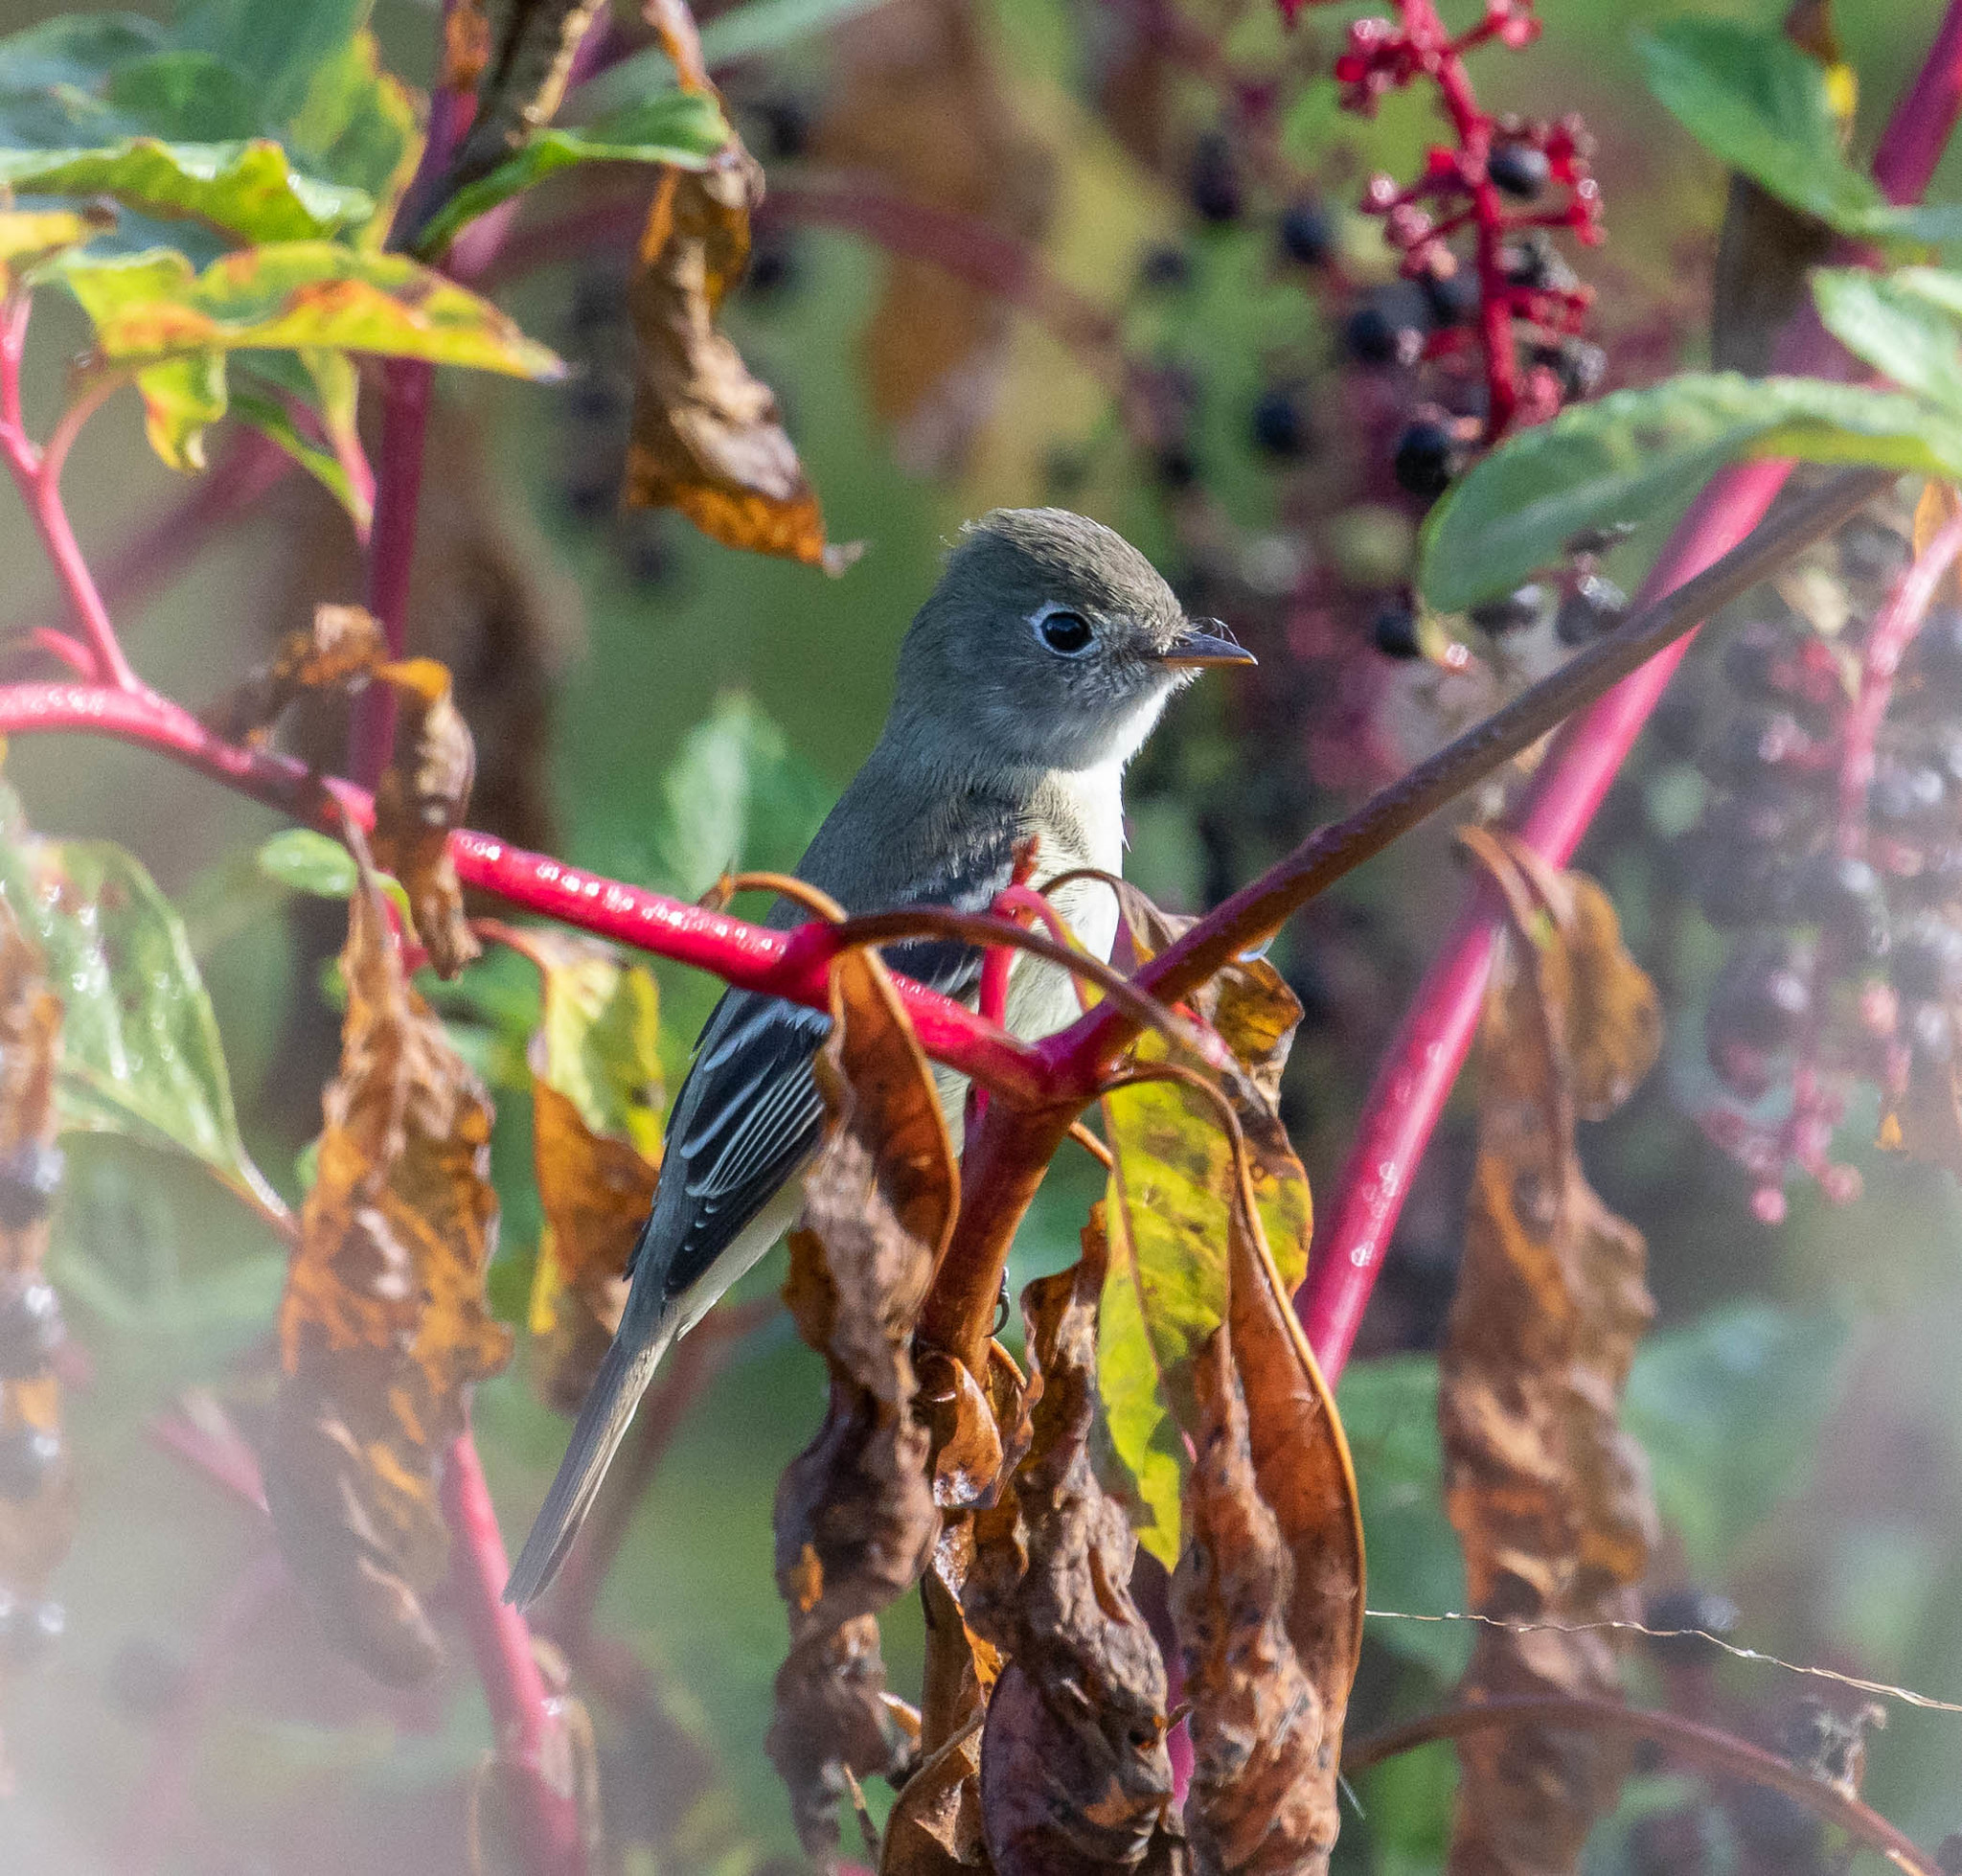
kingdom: Animalia
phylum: Chordata
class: Aves
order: Passeriformes
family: Tyrannidae
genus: Empidonax
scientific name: Empidonax minimus
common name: Least flycatcher
